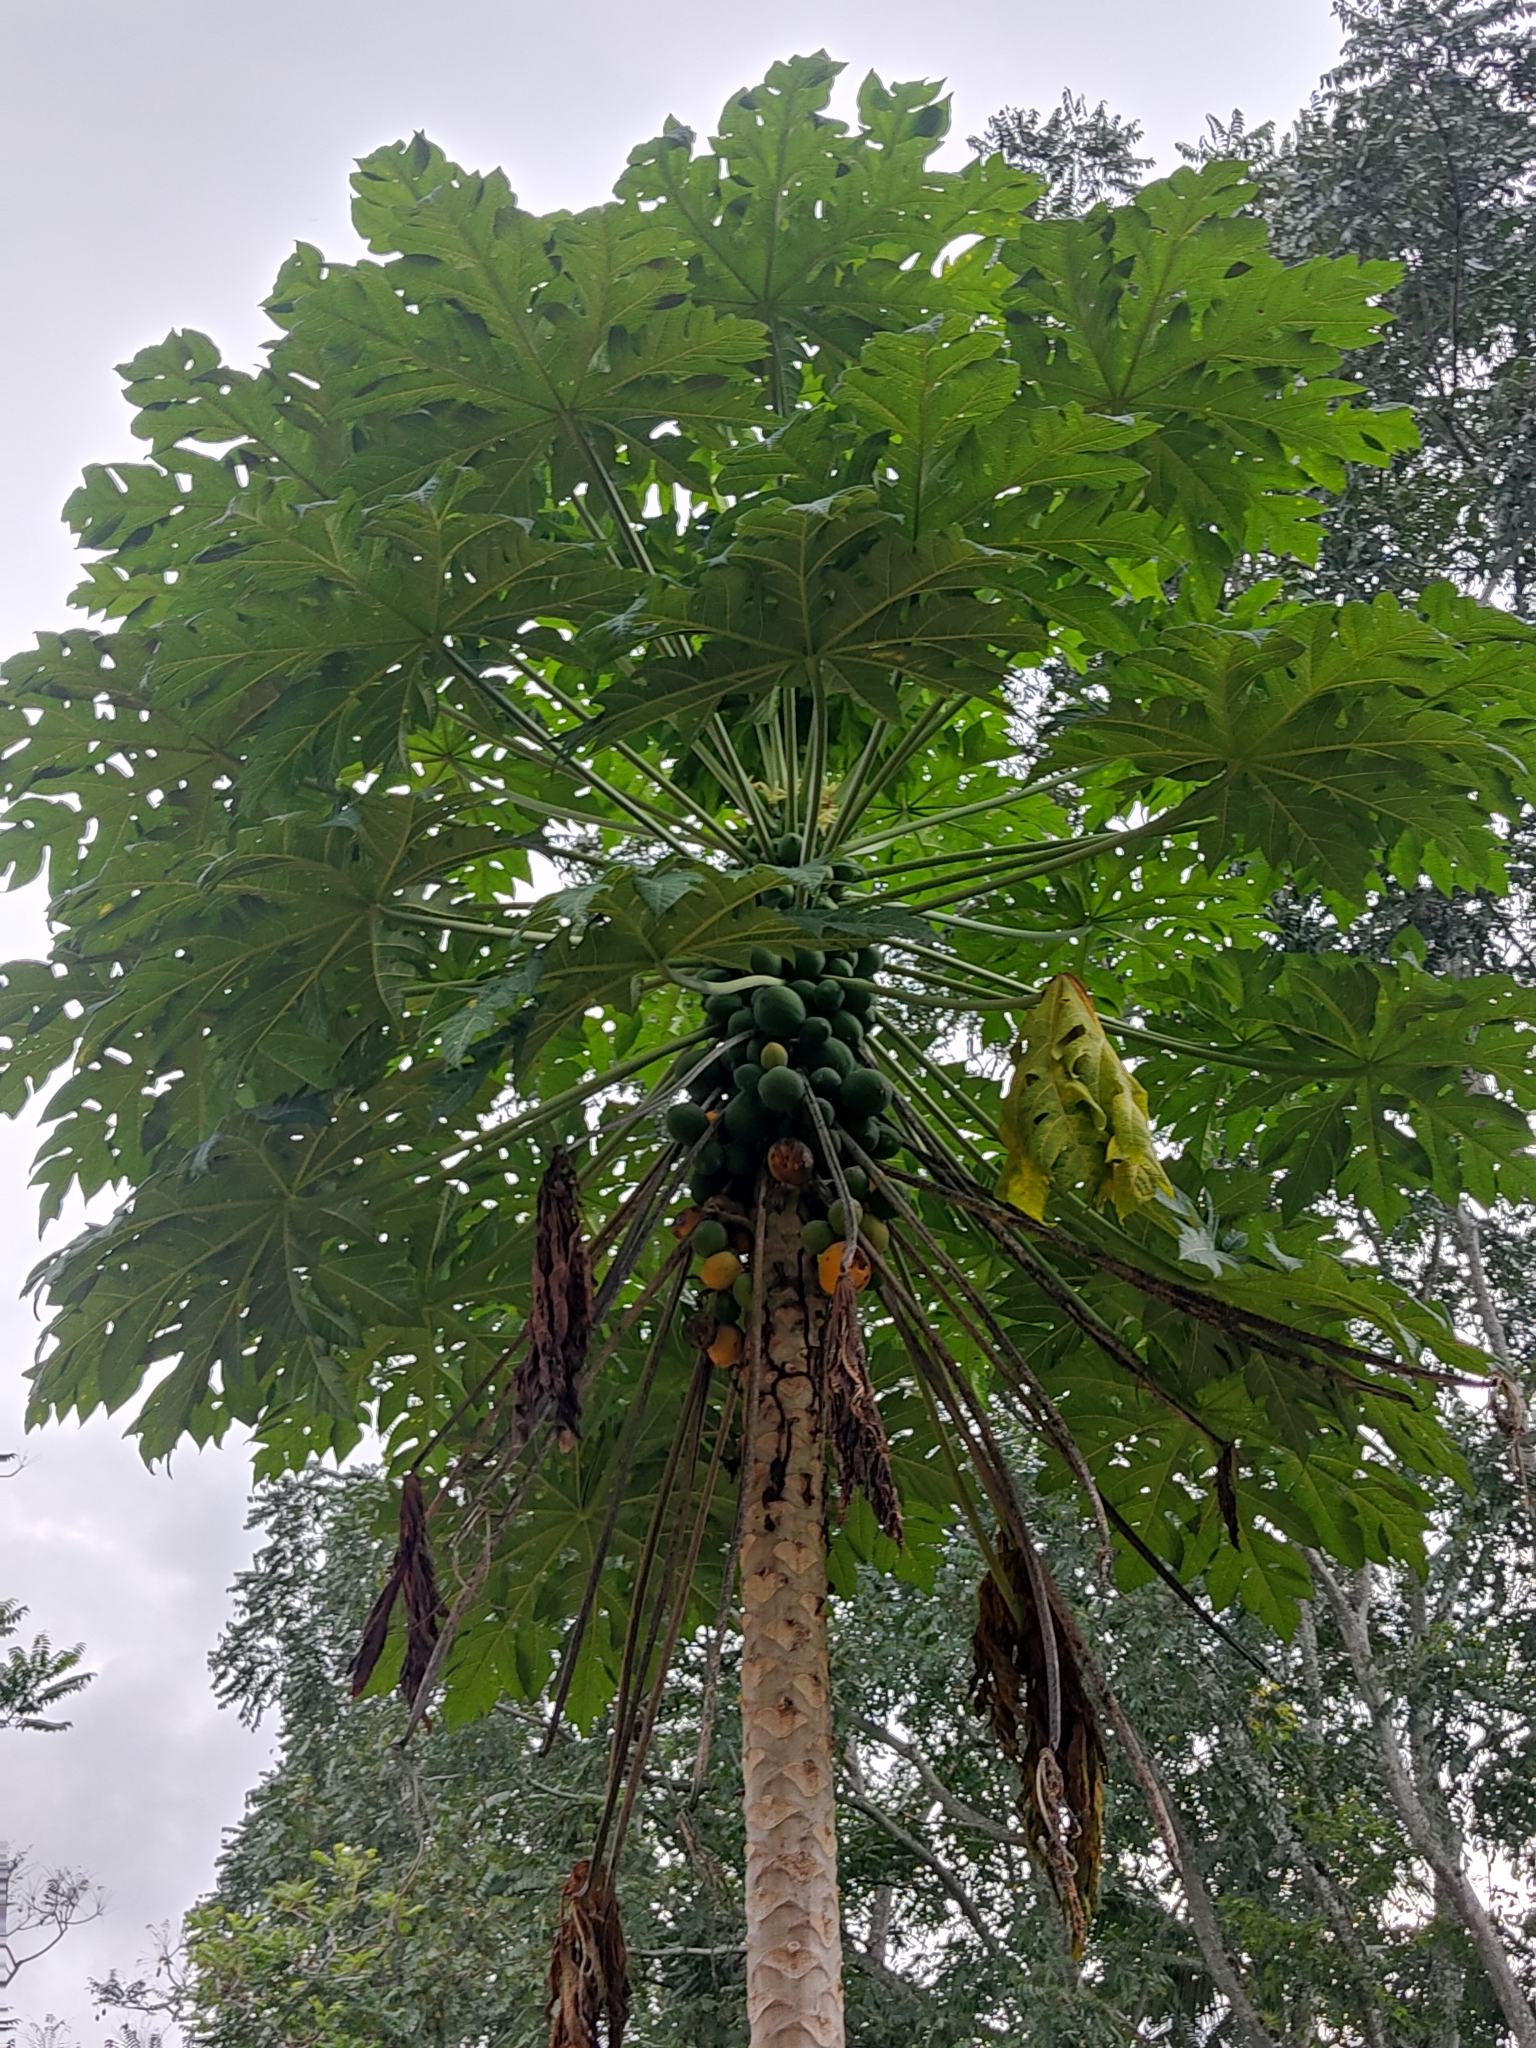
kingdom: Plantae
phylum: Tracheophyta
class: Magnoliopsida
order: Brassicales
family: Caricaceae
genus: Carica
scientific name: Carica papaya
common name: Papaya
